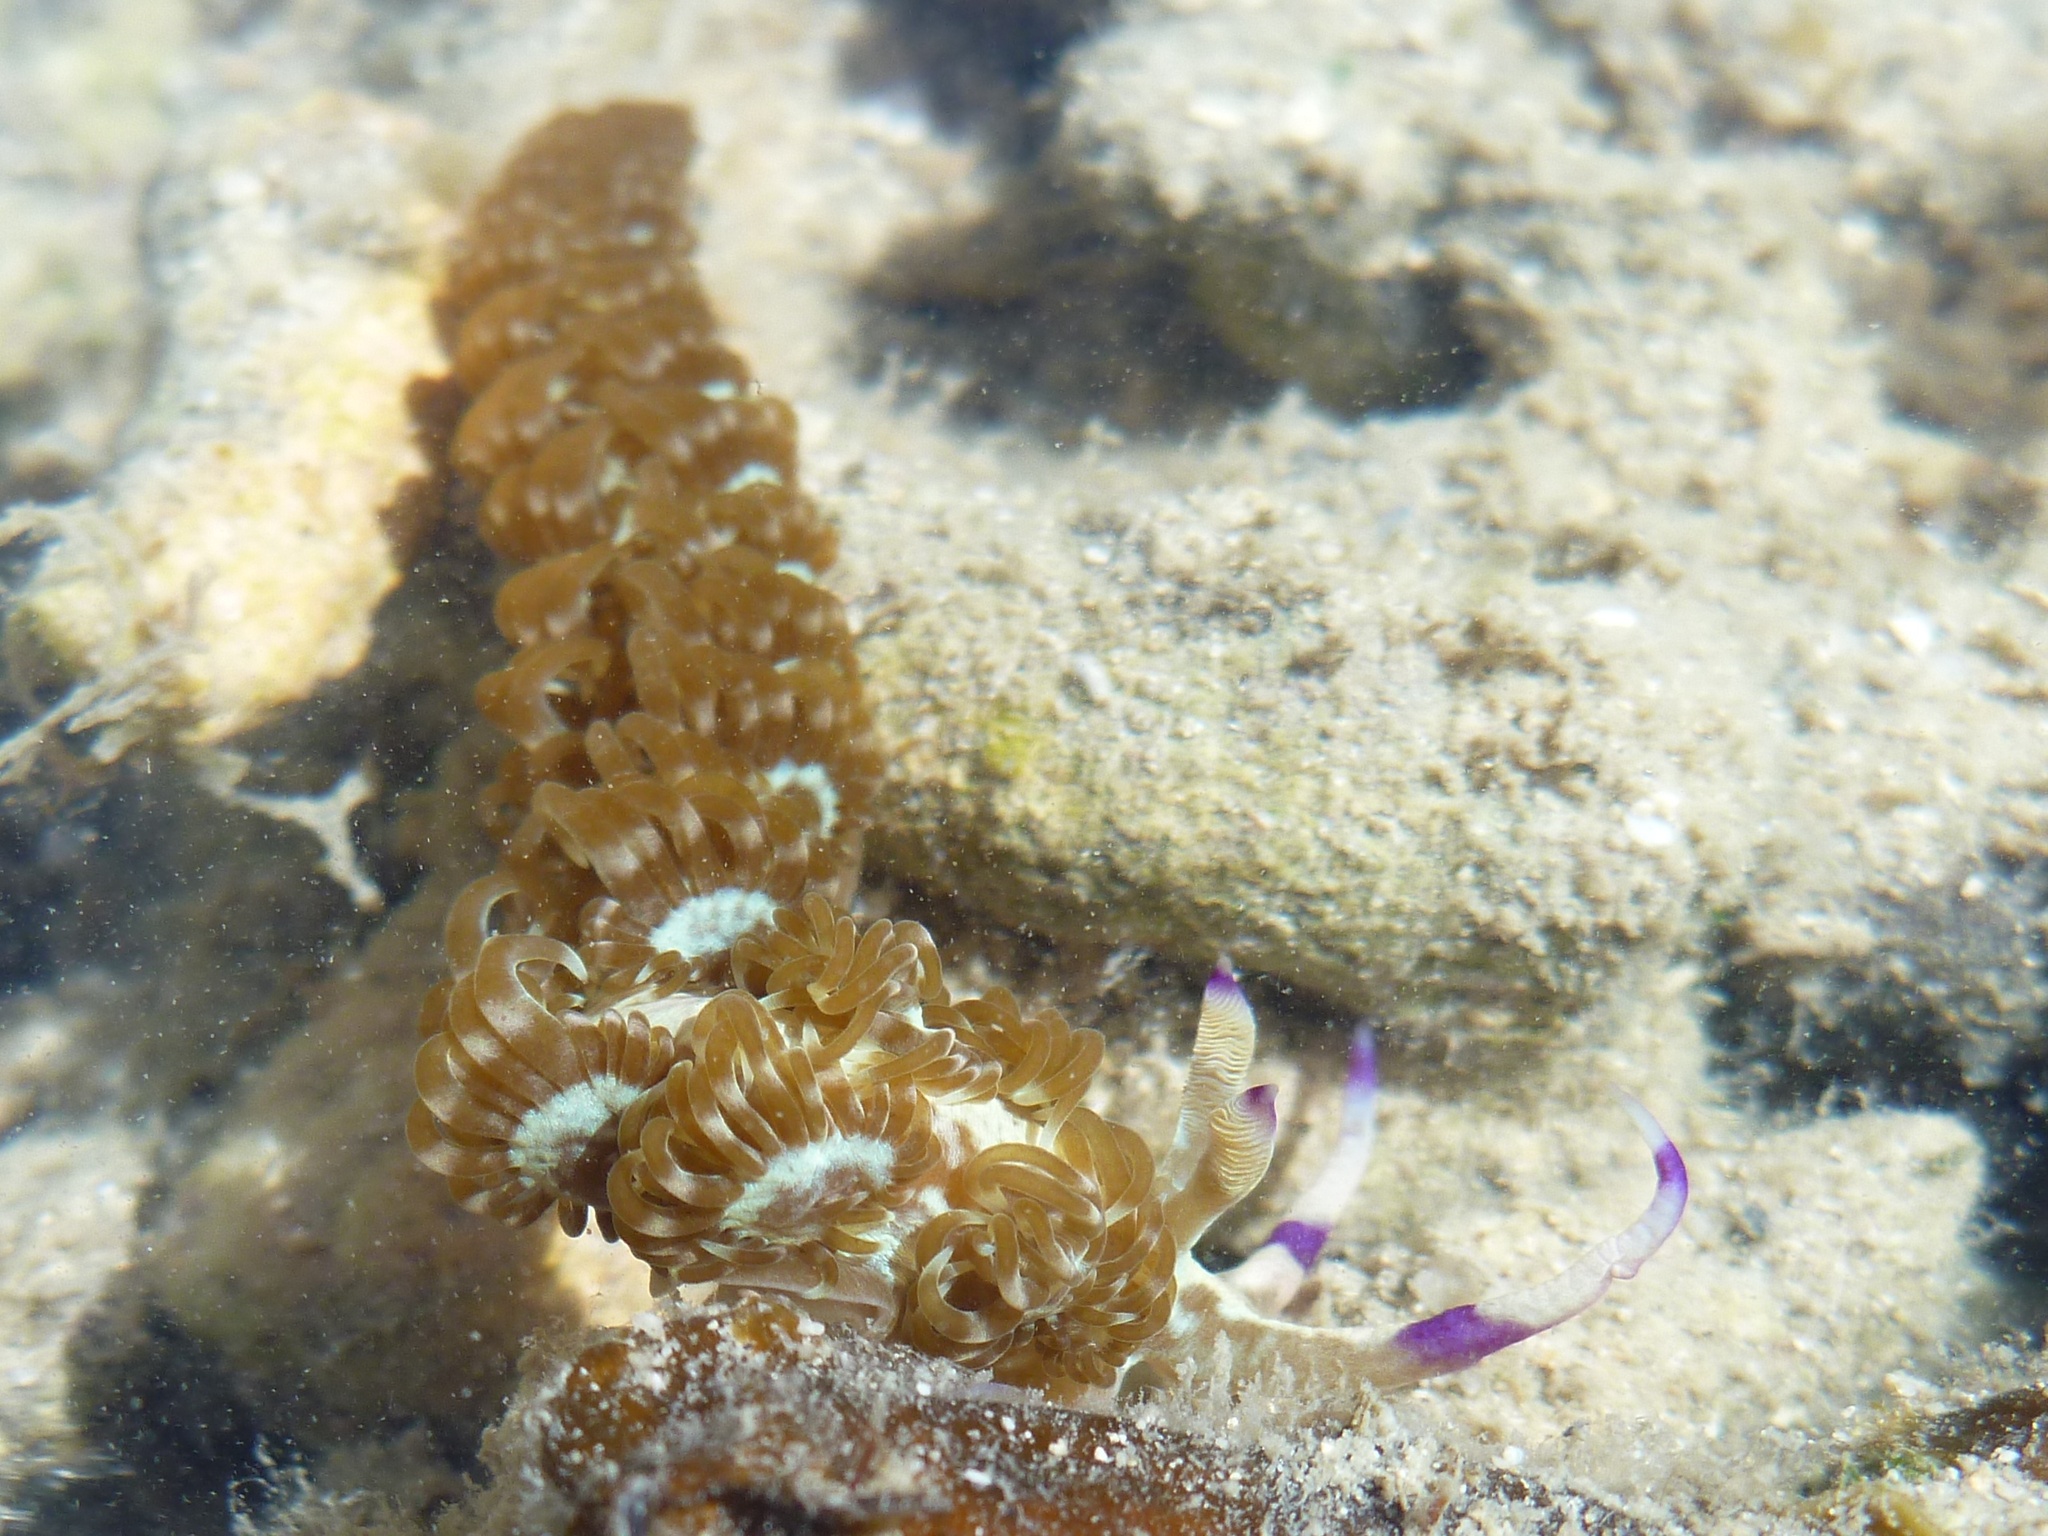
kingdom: Animalia
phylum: Mollusca
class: Gastropoda
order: Nudibranchia
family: Facelinidae
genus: Pteraeolidia
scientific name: Pteraeolidia semperi
